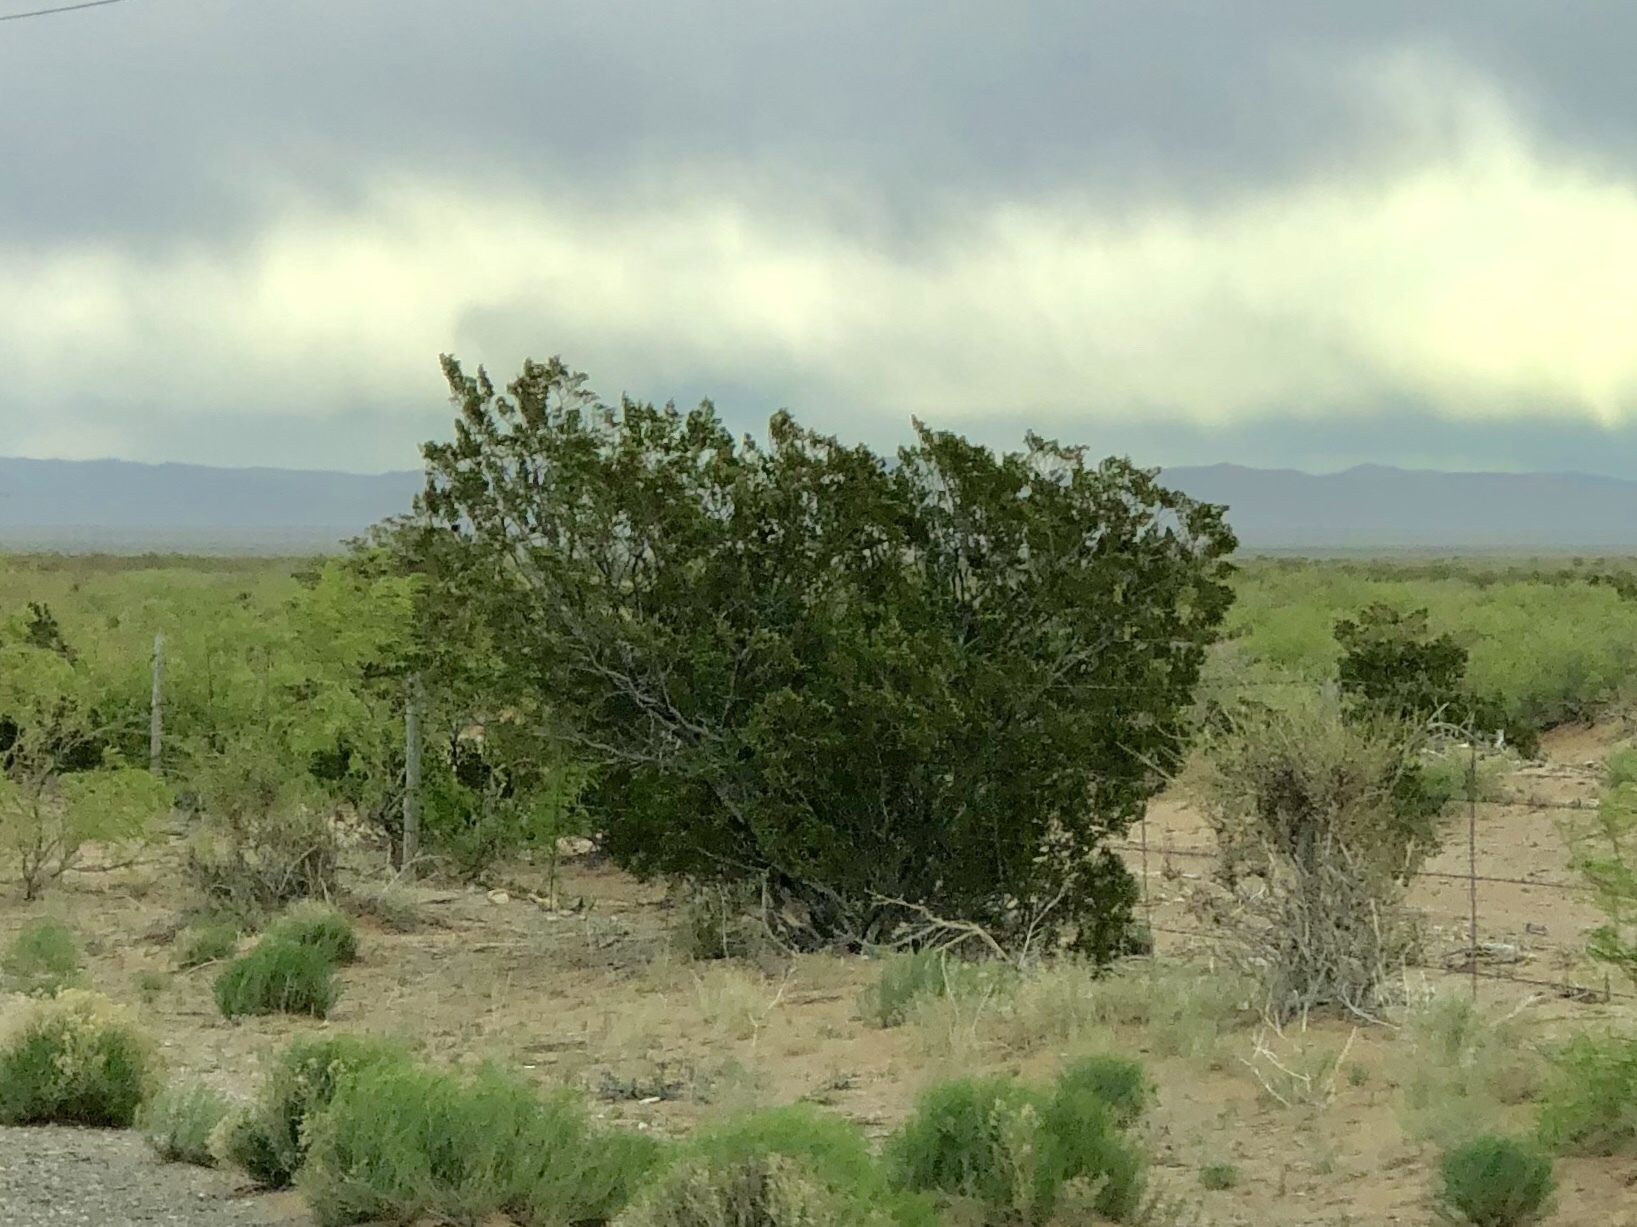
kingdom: Plantae
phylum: Tracheophyta
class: Magnoliopsida
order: Zygophyllales
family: Zygophyllaceae
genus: Larrea
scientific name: Larrea tridentata
